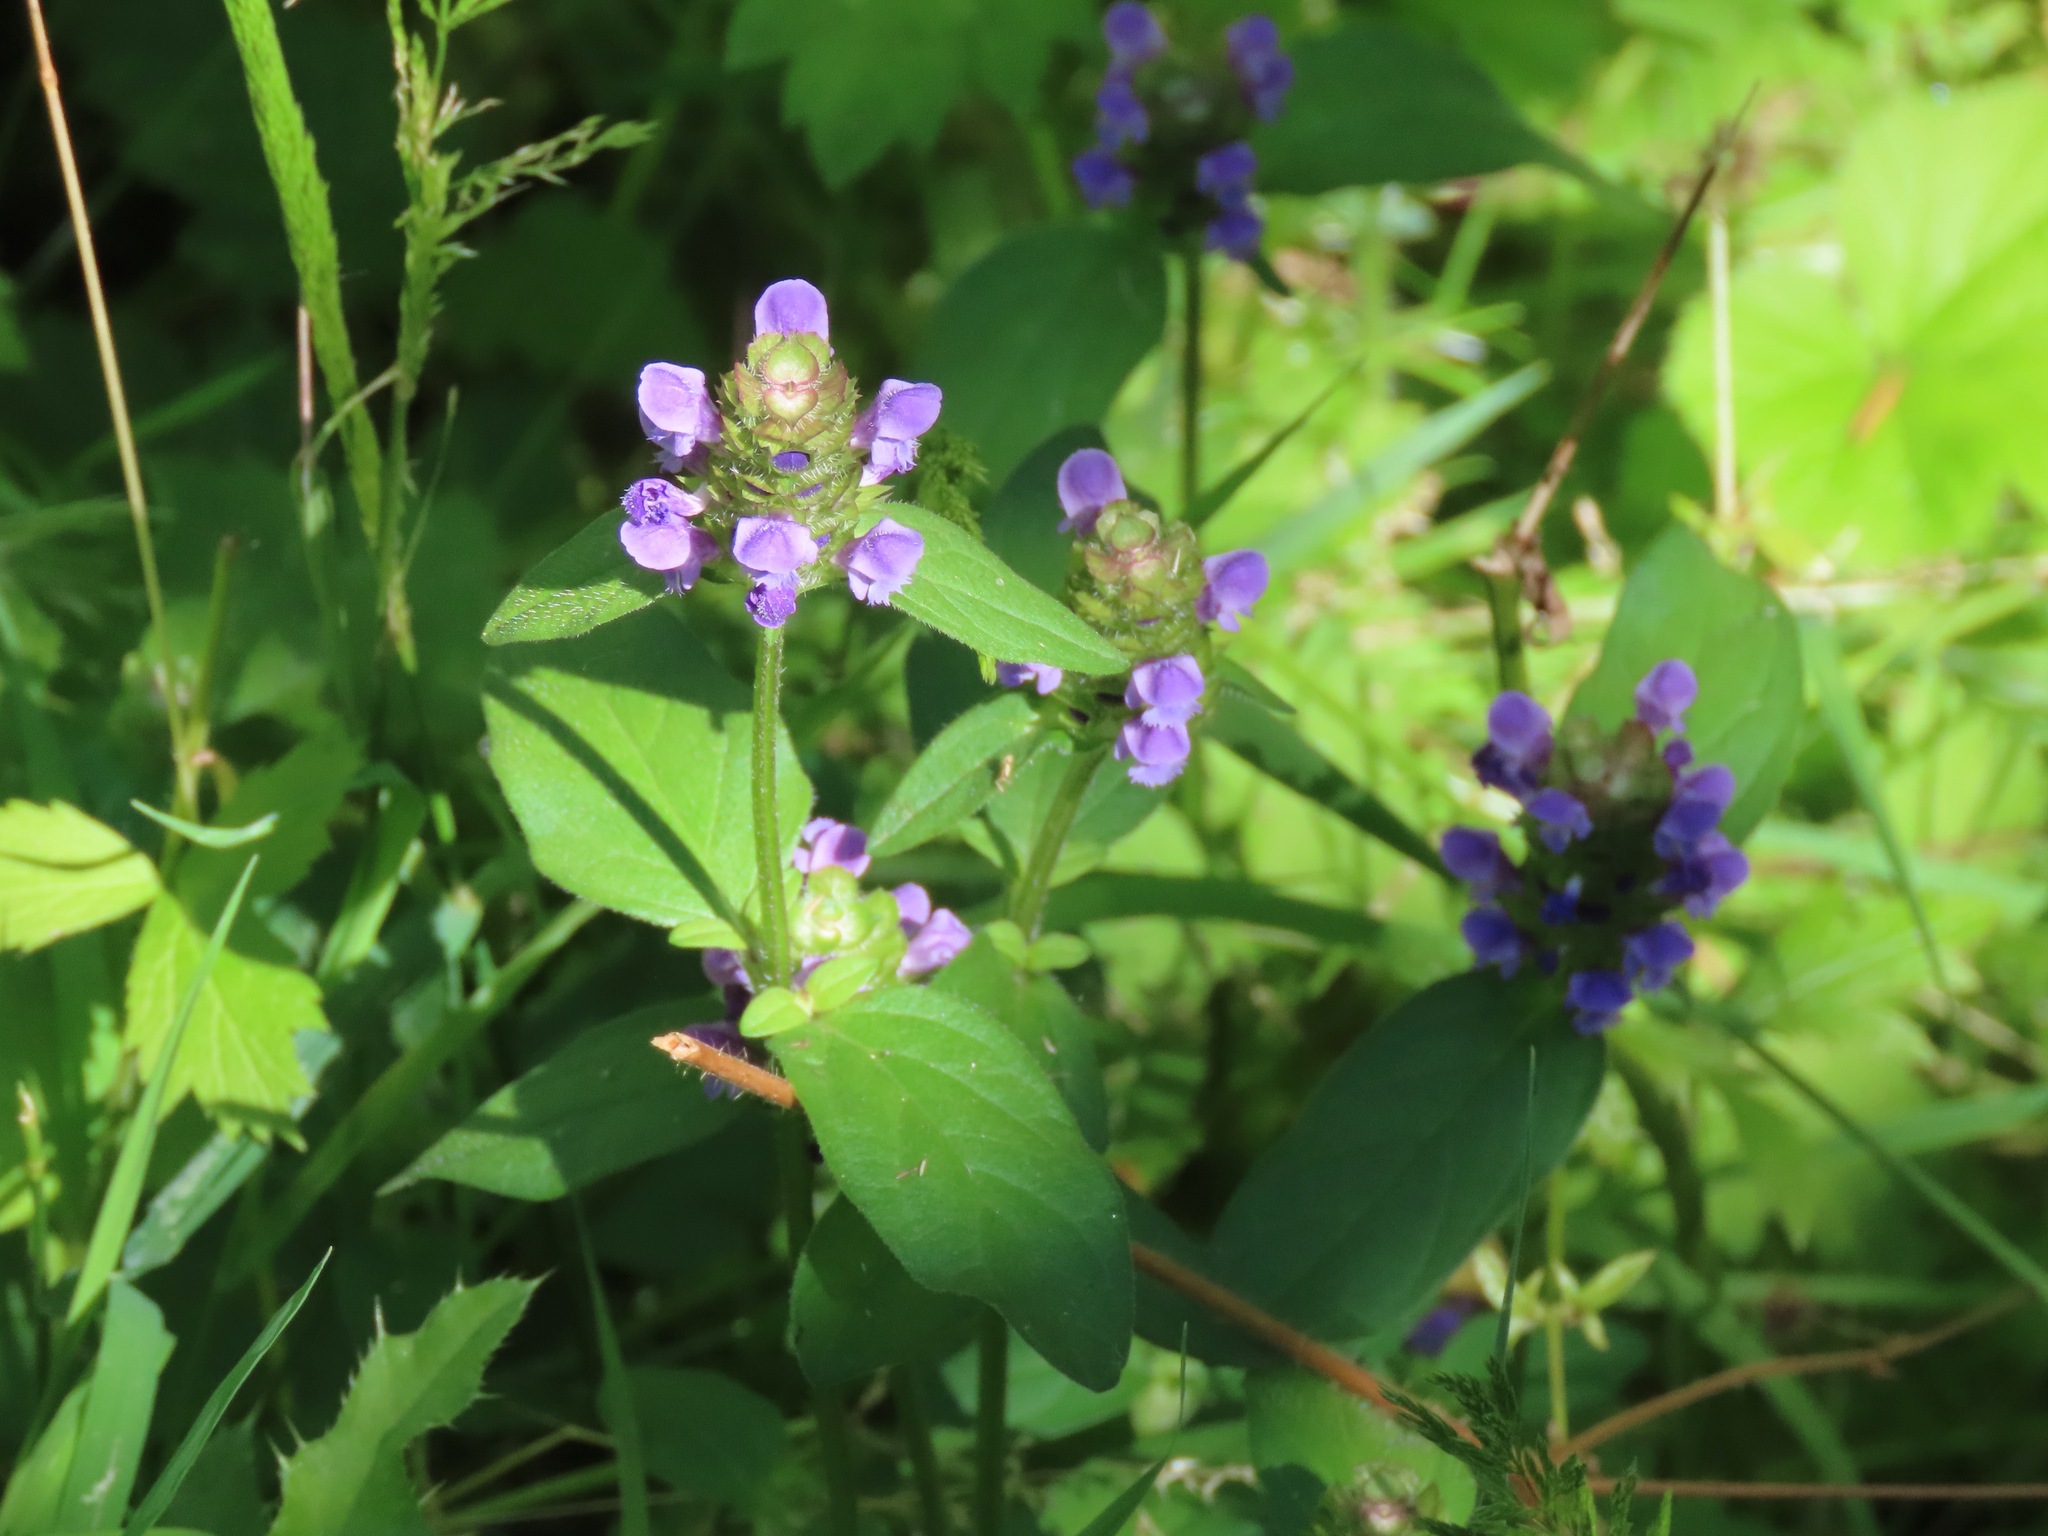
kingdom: Plantae
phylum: Tracheophyta
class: Magnoliopsida
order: Lamiales
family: Lamiaceae
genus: Prunella
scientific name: Prunella vulgaris
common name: Heal-all
